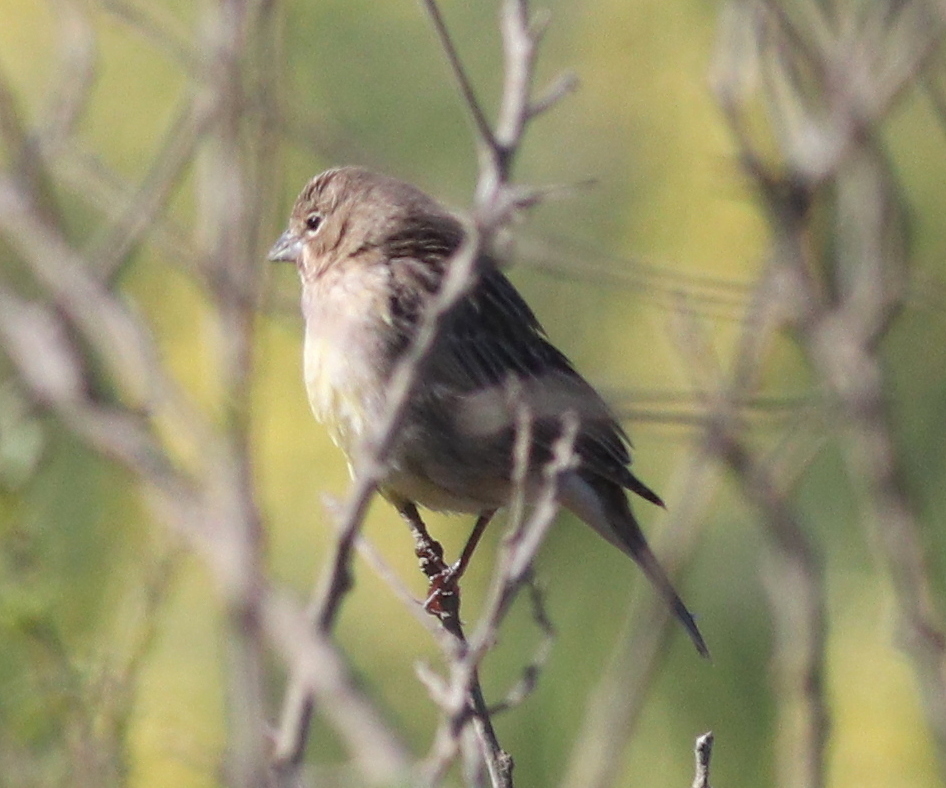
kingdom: Animalia
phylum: Chordata
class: Aves
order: Passeriformes
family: Thraupidae
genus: Sicalis
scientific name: Sicalis luteola
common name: Grassland yellow-finch
